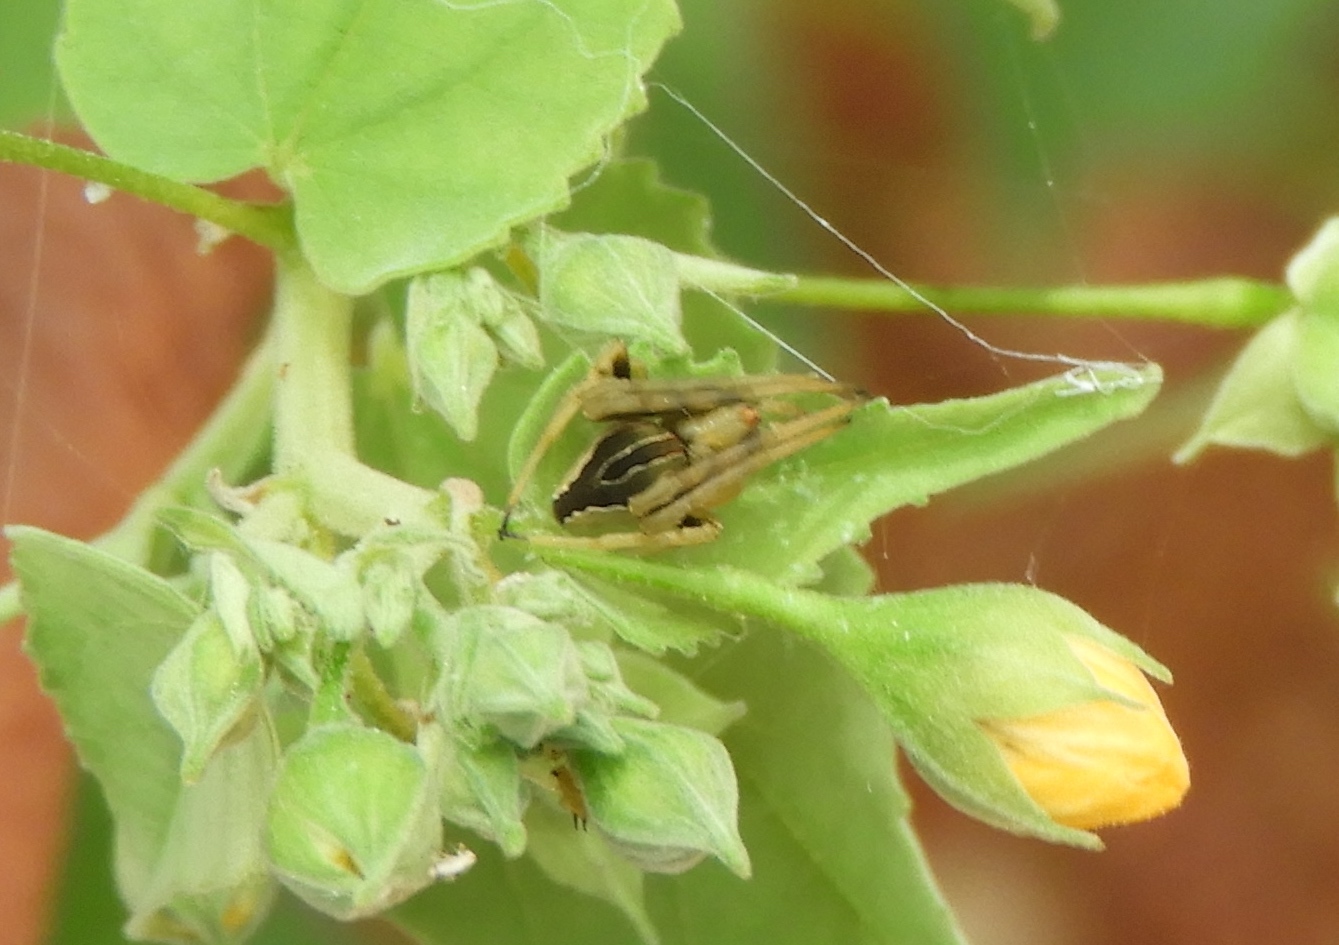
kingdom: Animalia
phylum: Arthropoda
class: Arachnida
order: Araneae
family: Araneidae
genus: Acacesia
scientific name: Acacesia
